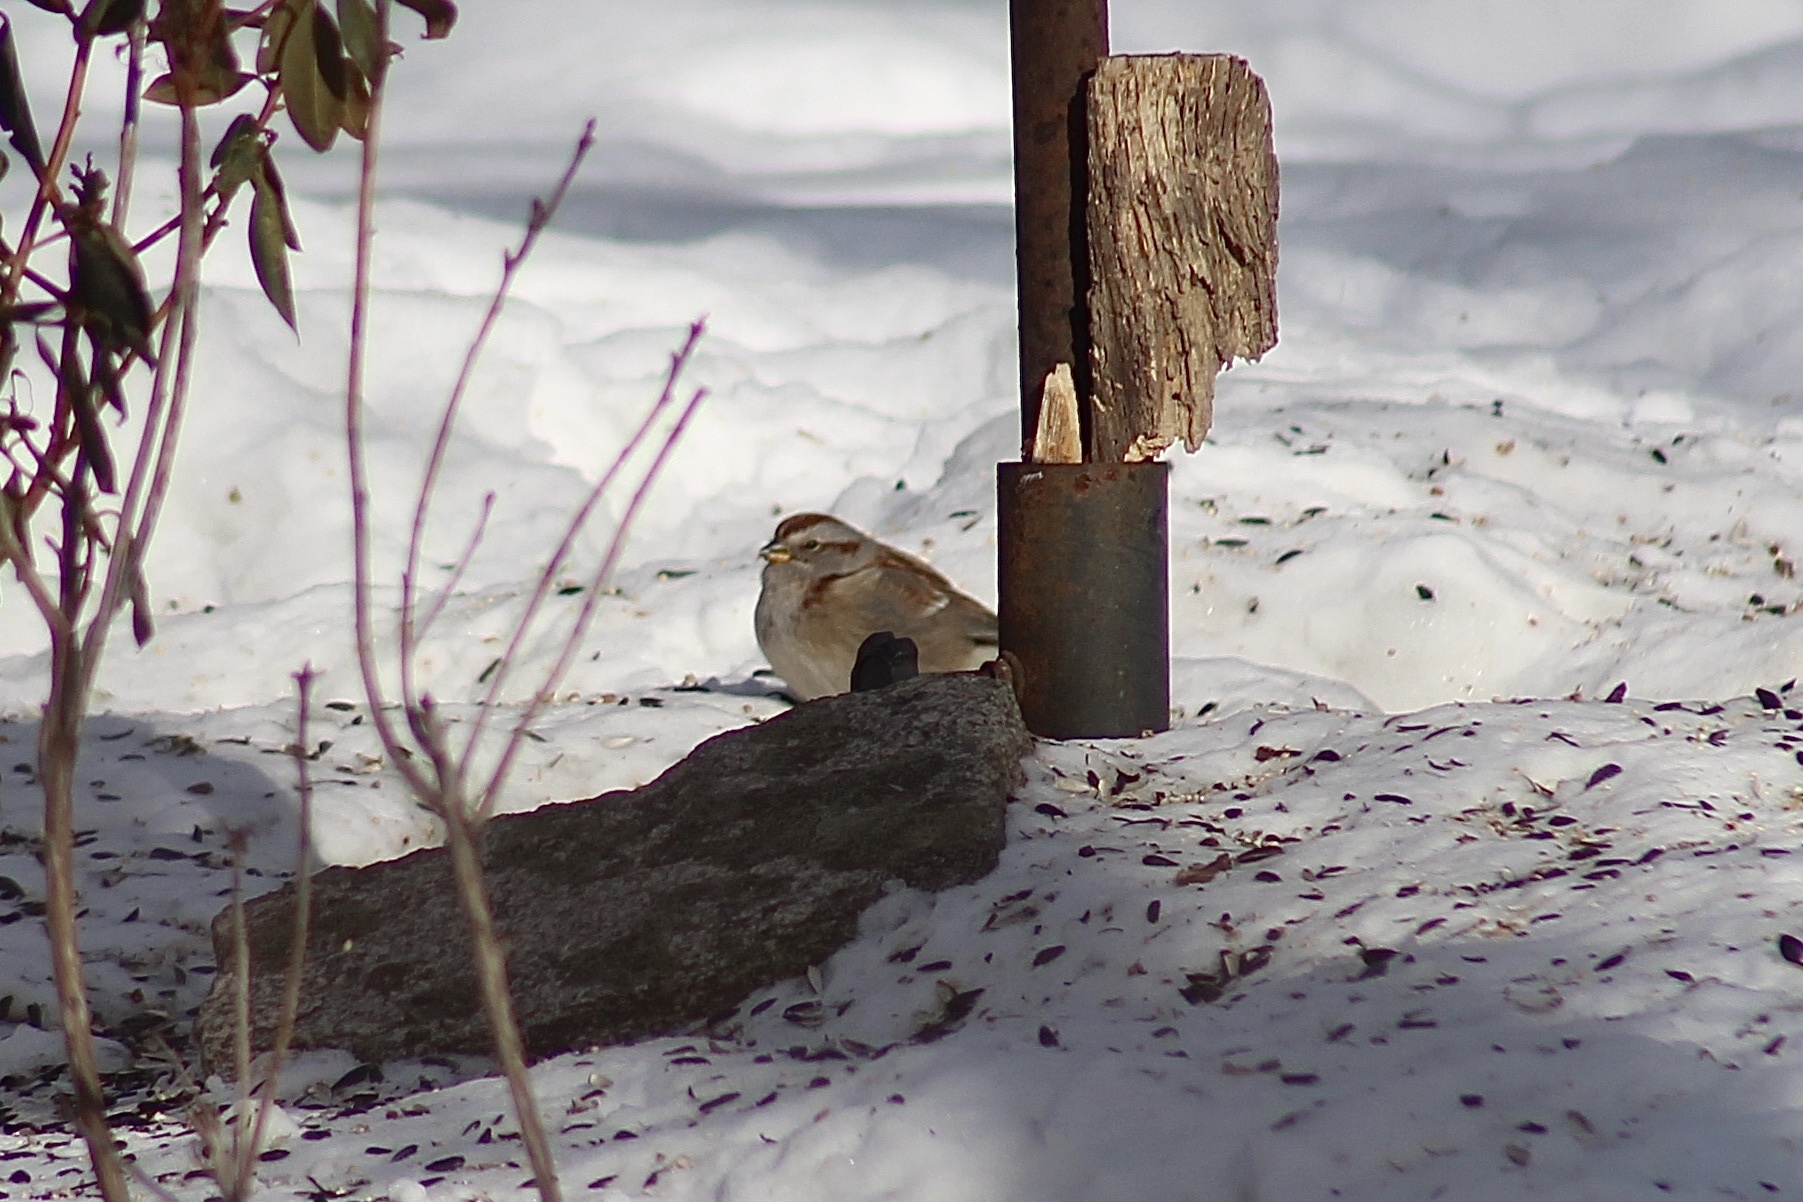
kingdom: Animalia
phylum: Chordata
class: Aves
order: Passeriformes
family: Passerellidae
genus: Spizelloides
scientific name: Spizelloides arborea
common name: American tree sparrow
